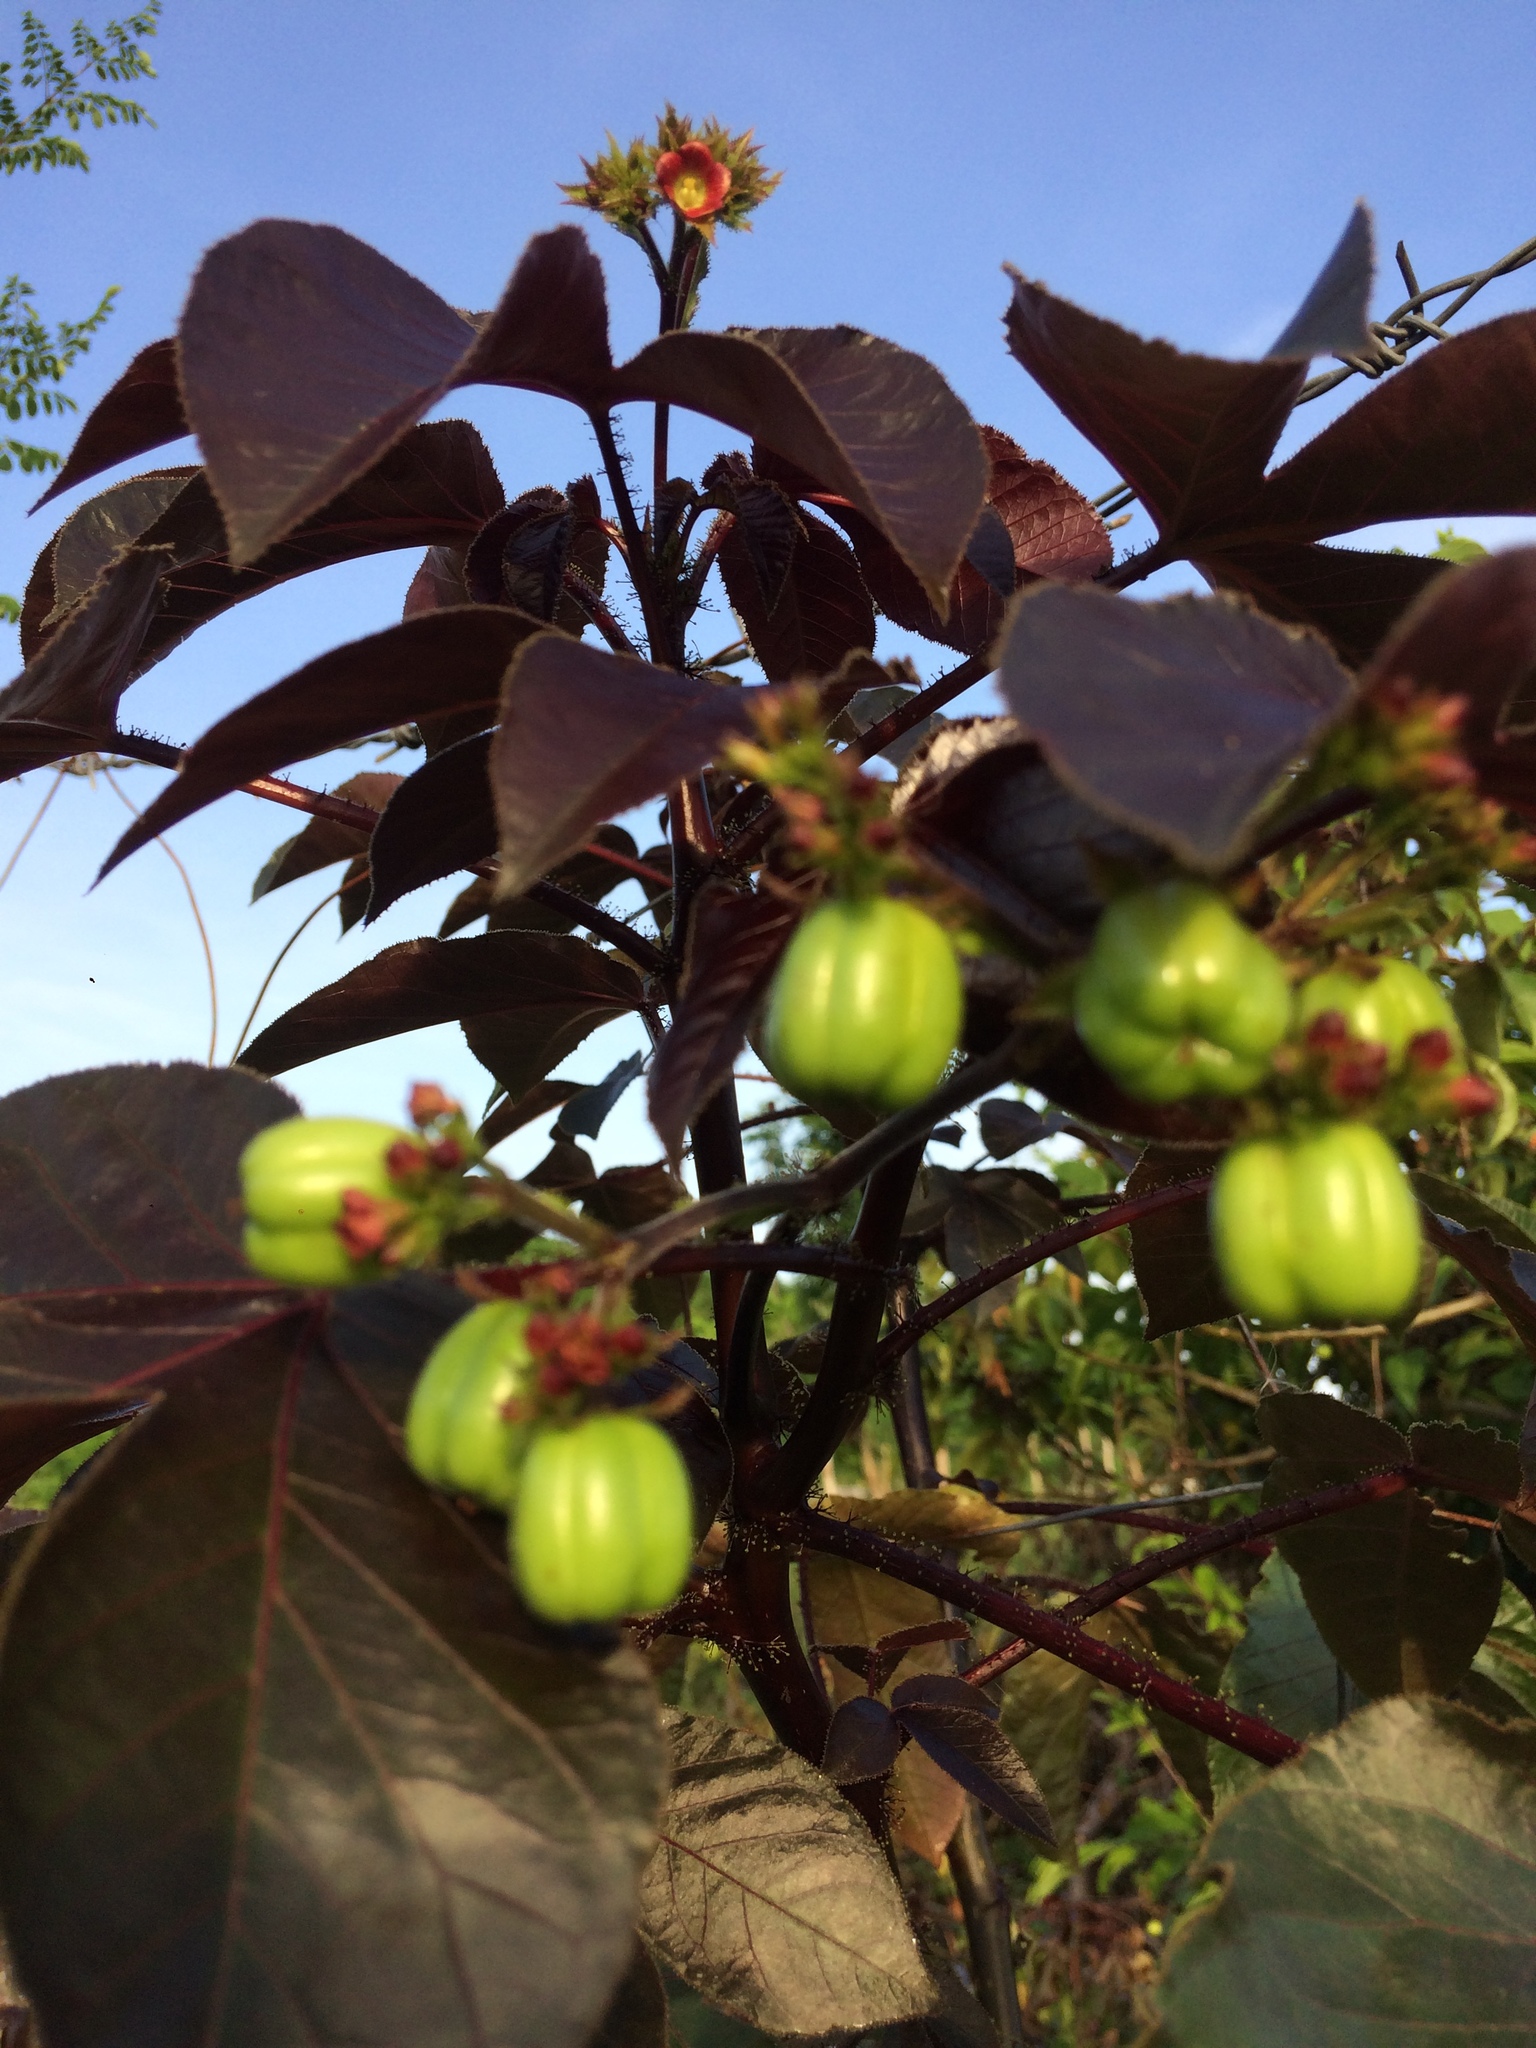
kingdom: Plantae
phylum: Tracheophyta
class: Magnoliopsida
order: Malpighiales
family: Euphorbiaceae
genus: Jatropha
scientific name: Jatropha gossypiifolia
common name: Bellyache bush
